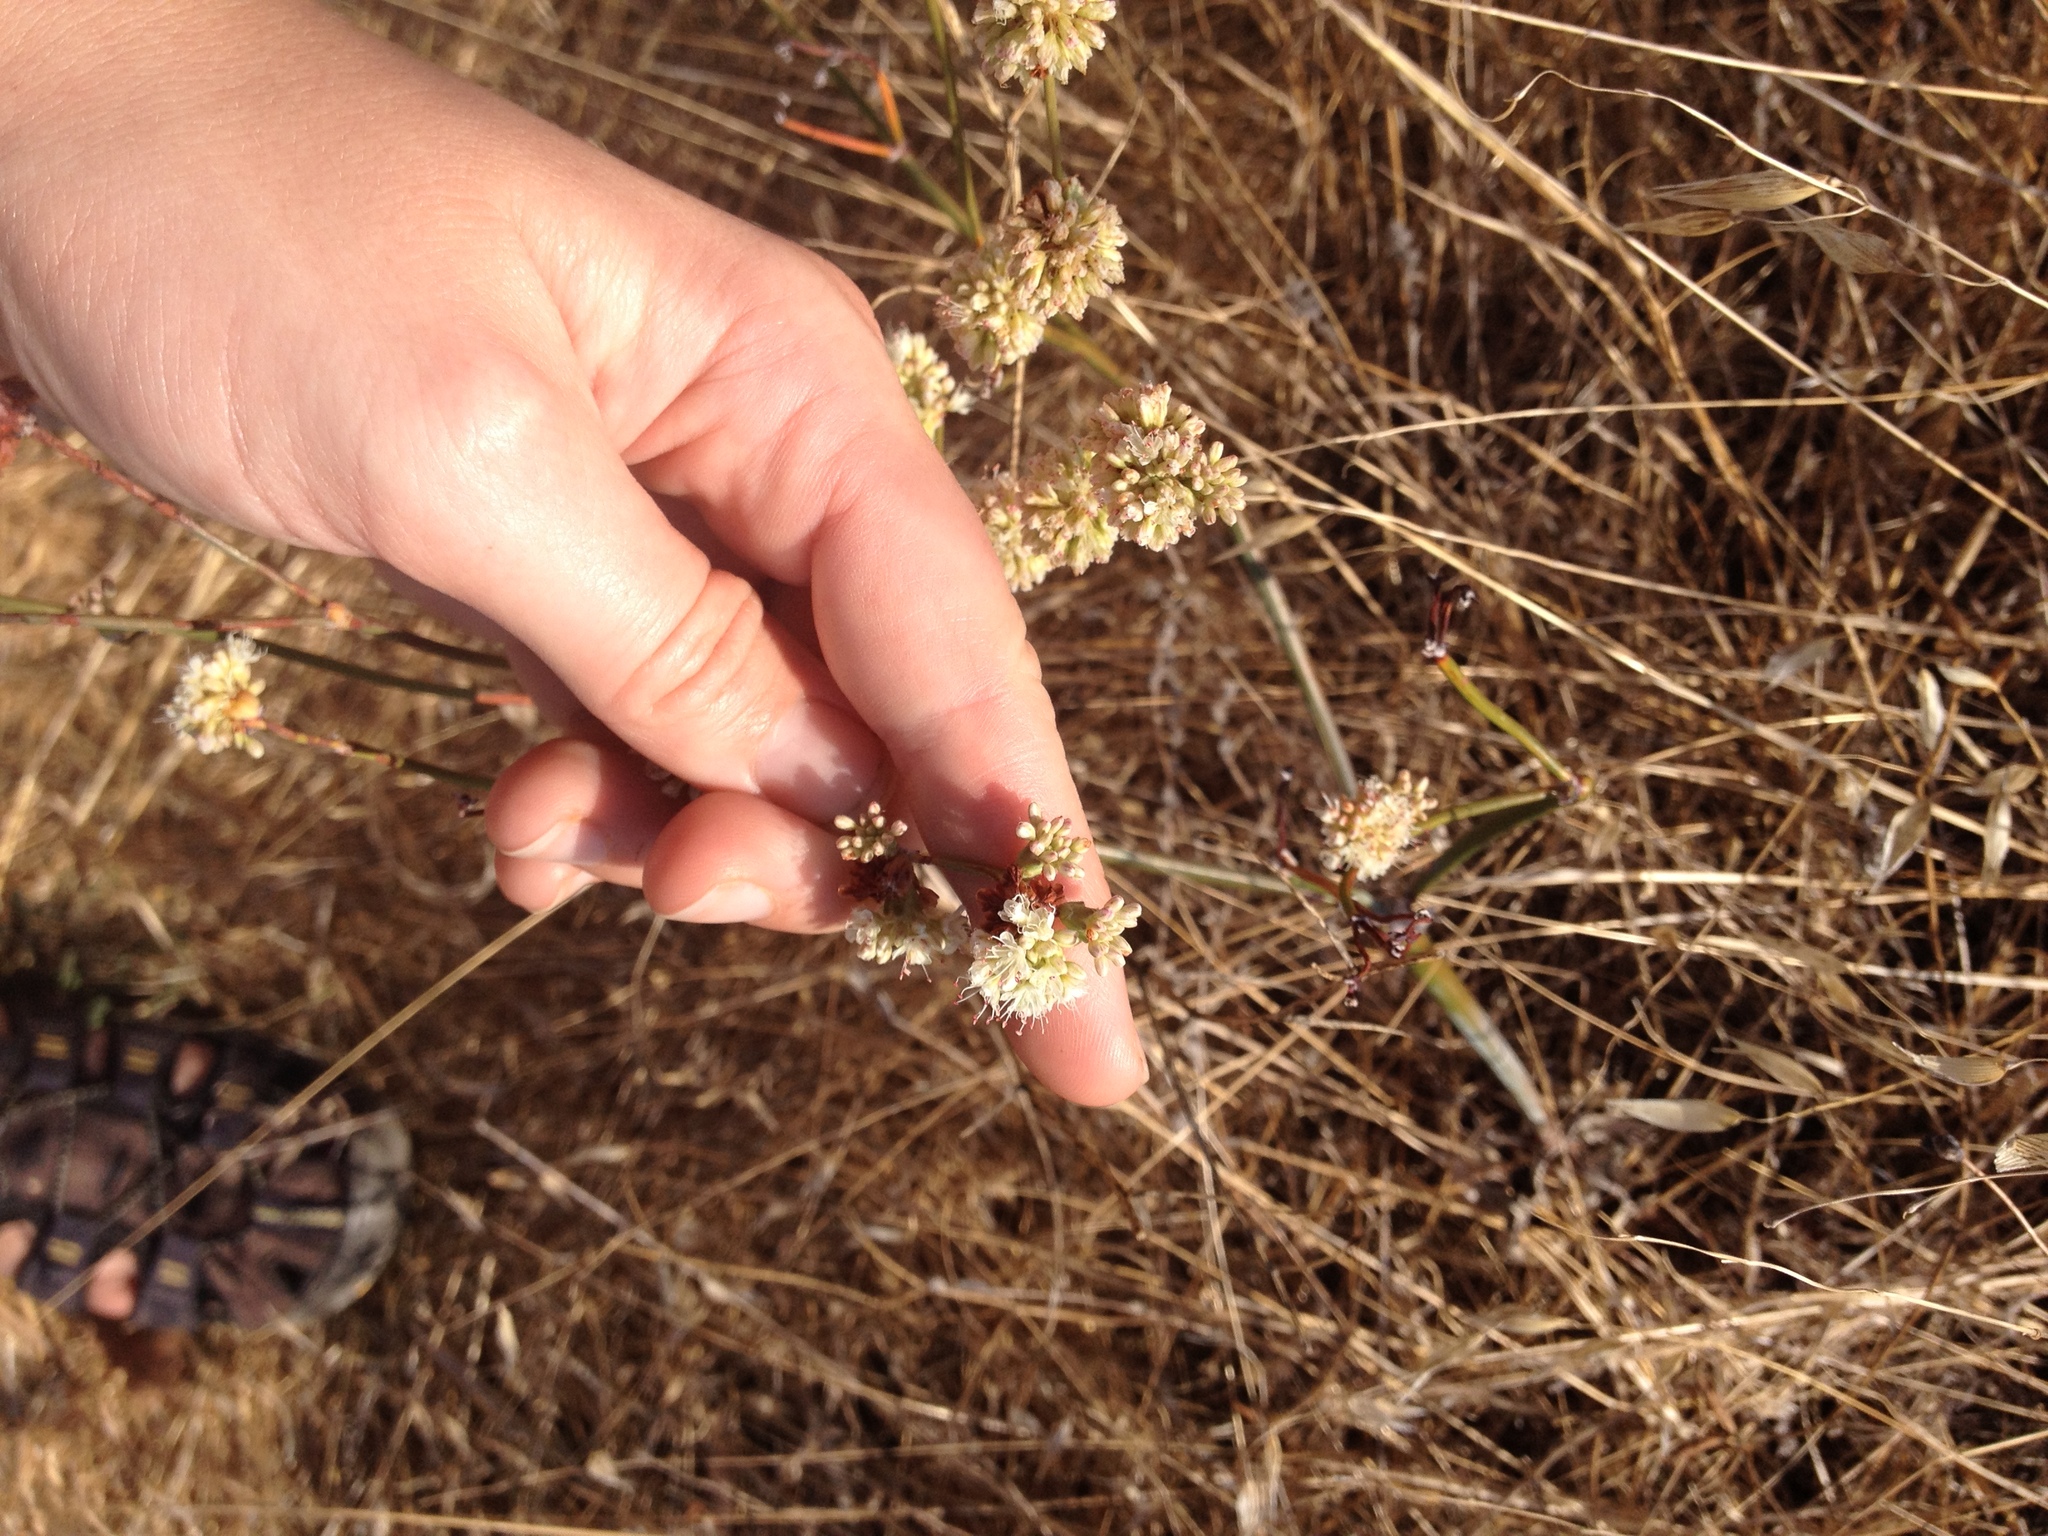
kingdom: Plantae
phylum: Tracheophyta
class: Magnoliopsida
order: Caryophyllales
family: Polygonaceae
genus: Eriogonum
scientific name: Eriogonum nudum
